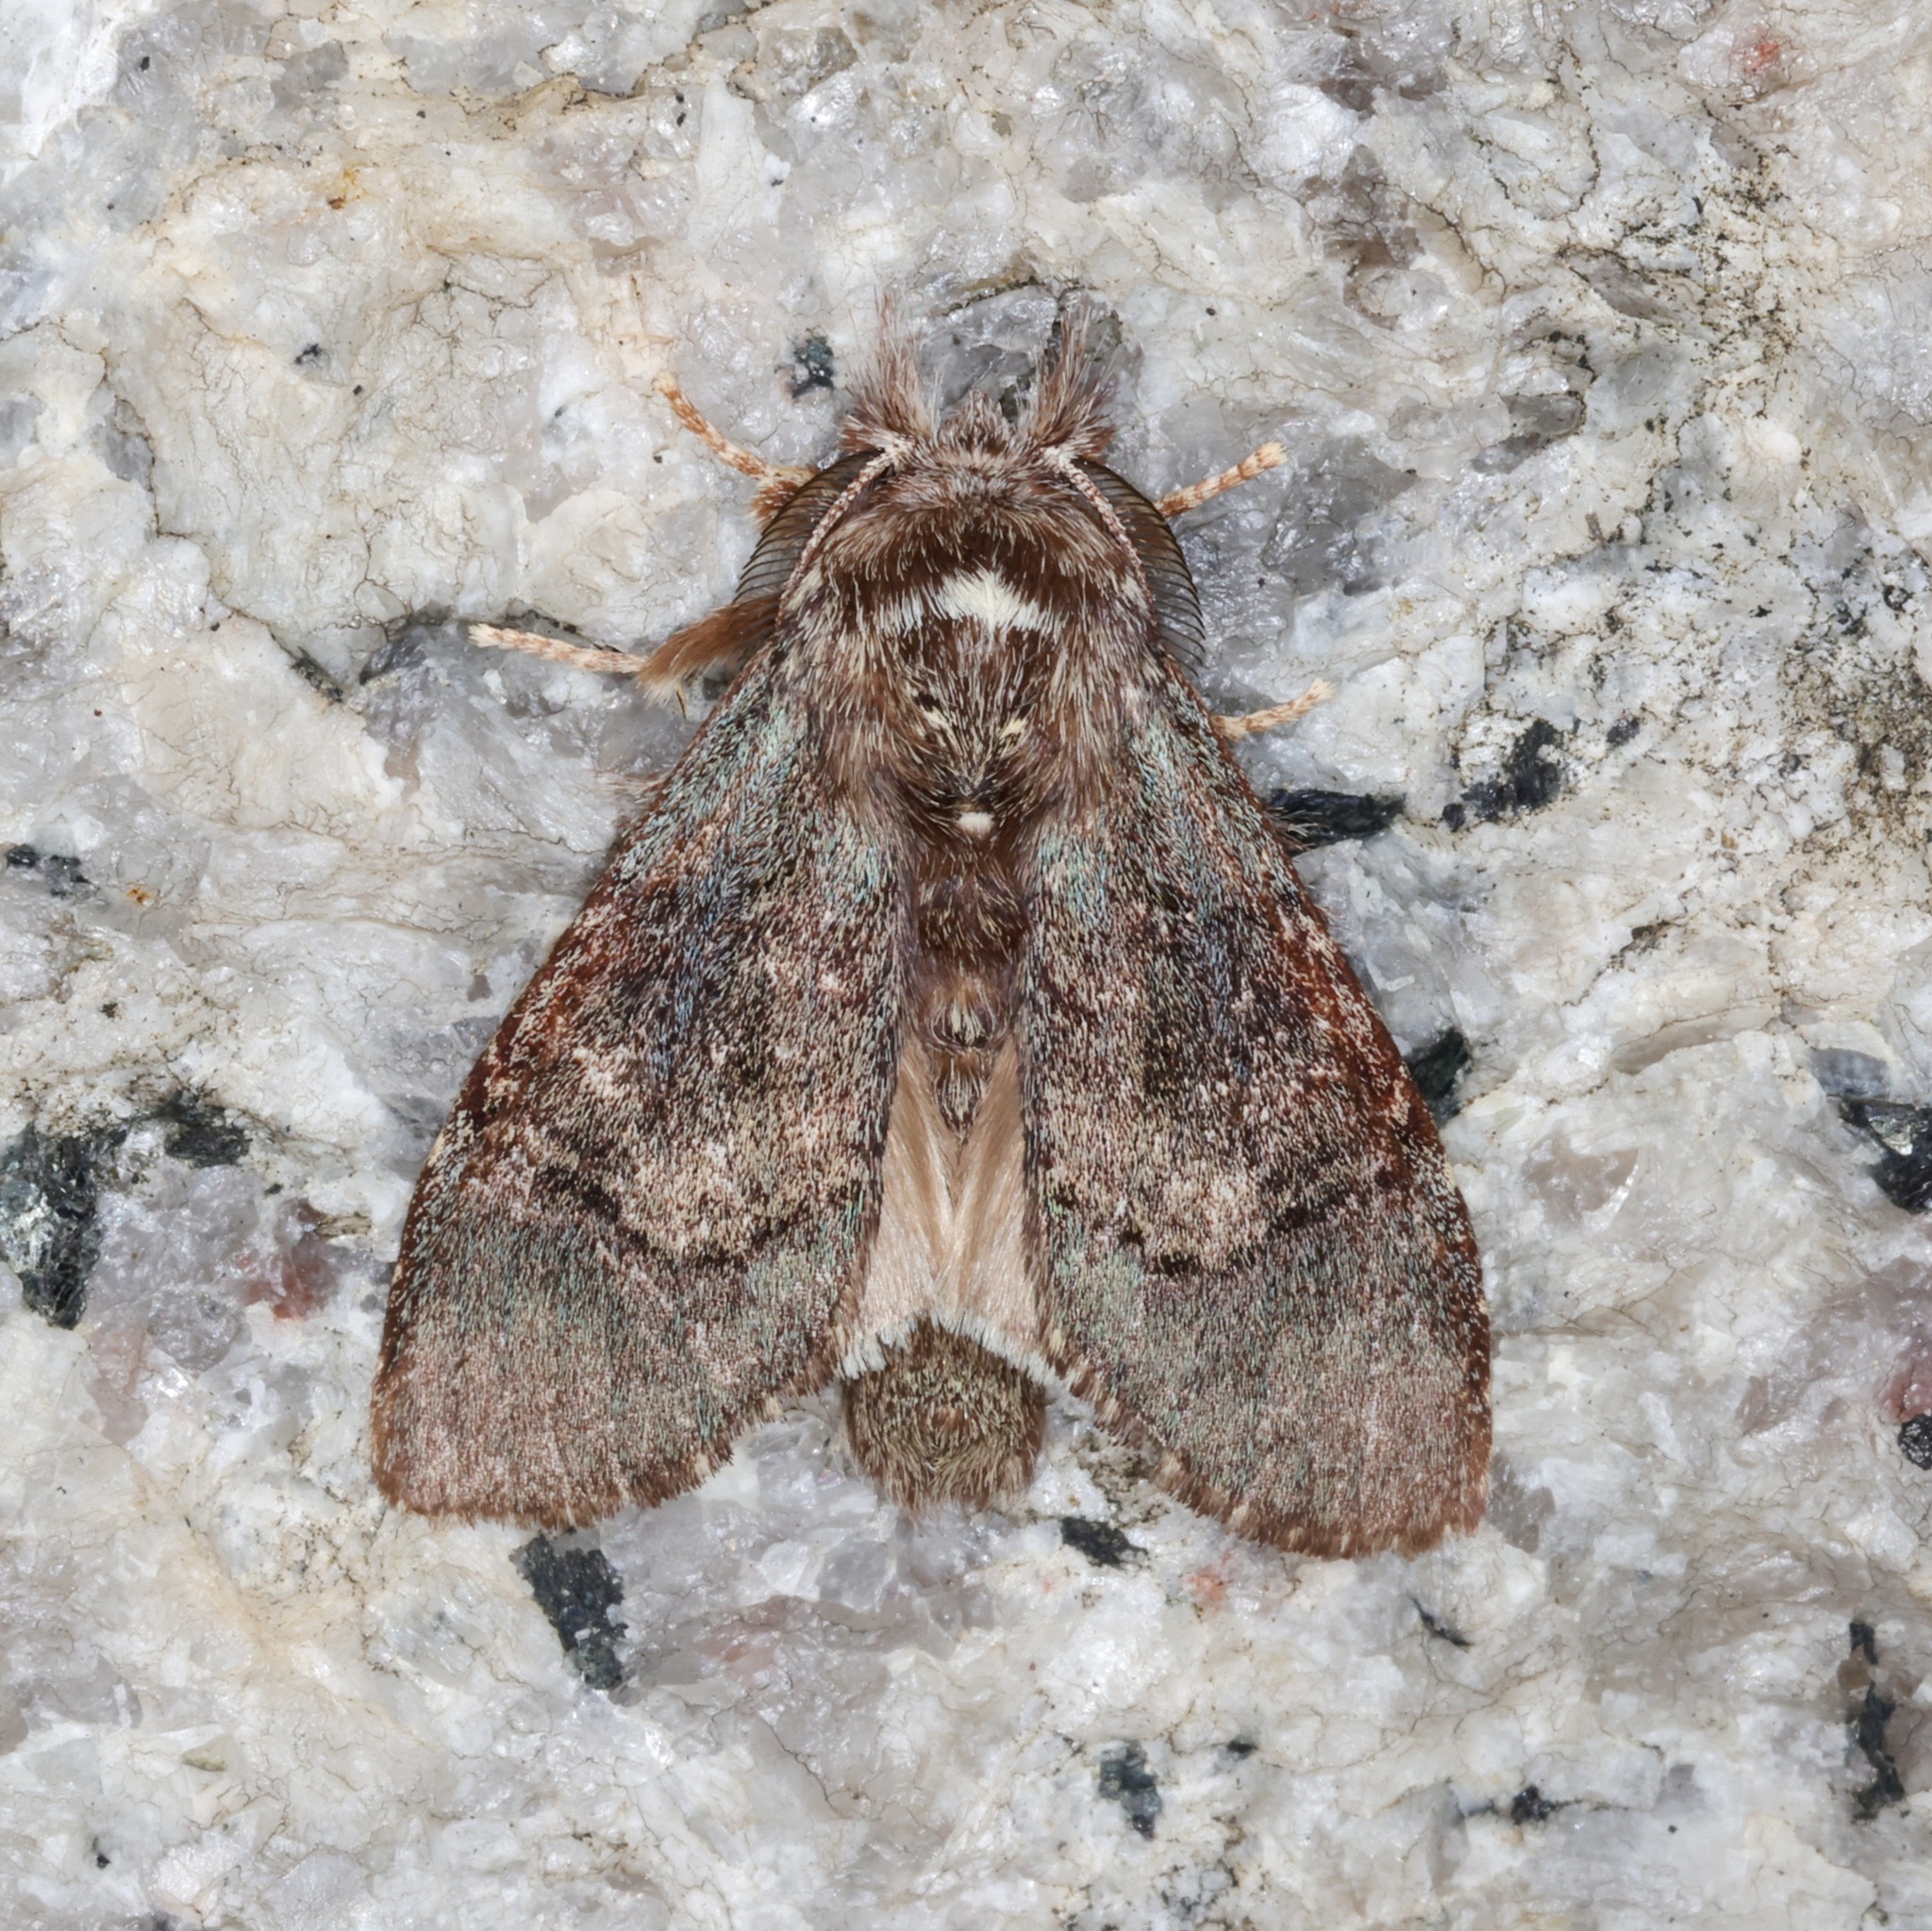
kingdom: Animalia
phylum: Arthropoda
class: Insecta
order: Lepidoptera
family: Notodontidae
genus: Syntypistis
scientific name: Syntypistis pallidifascia
